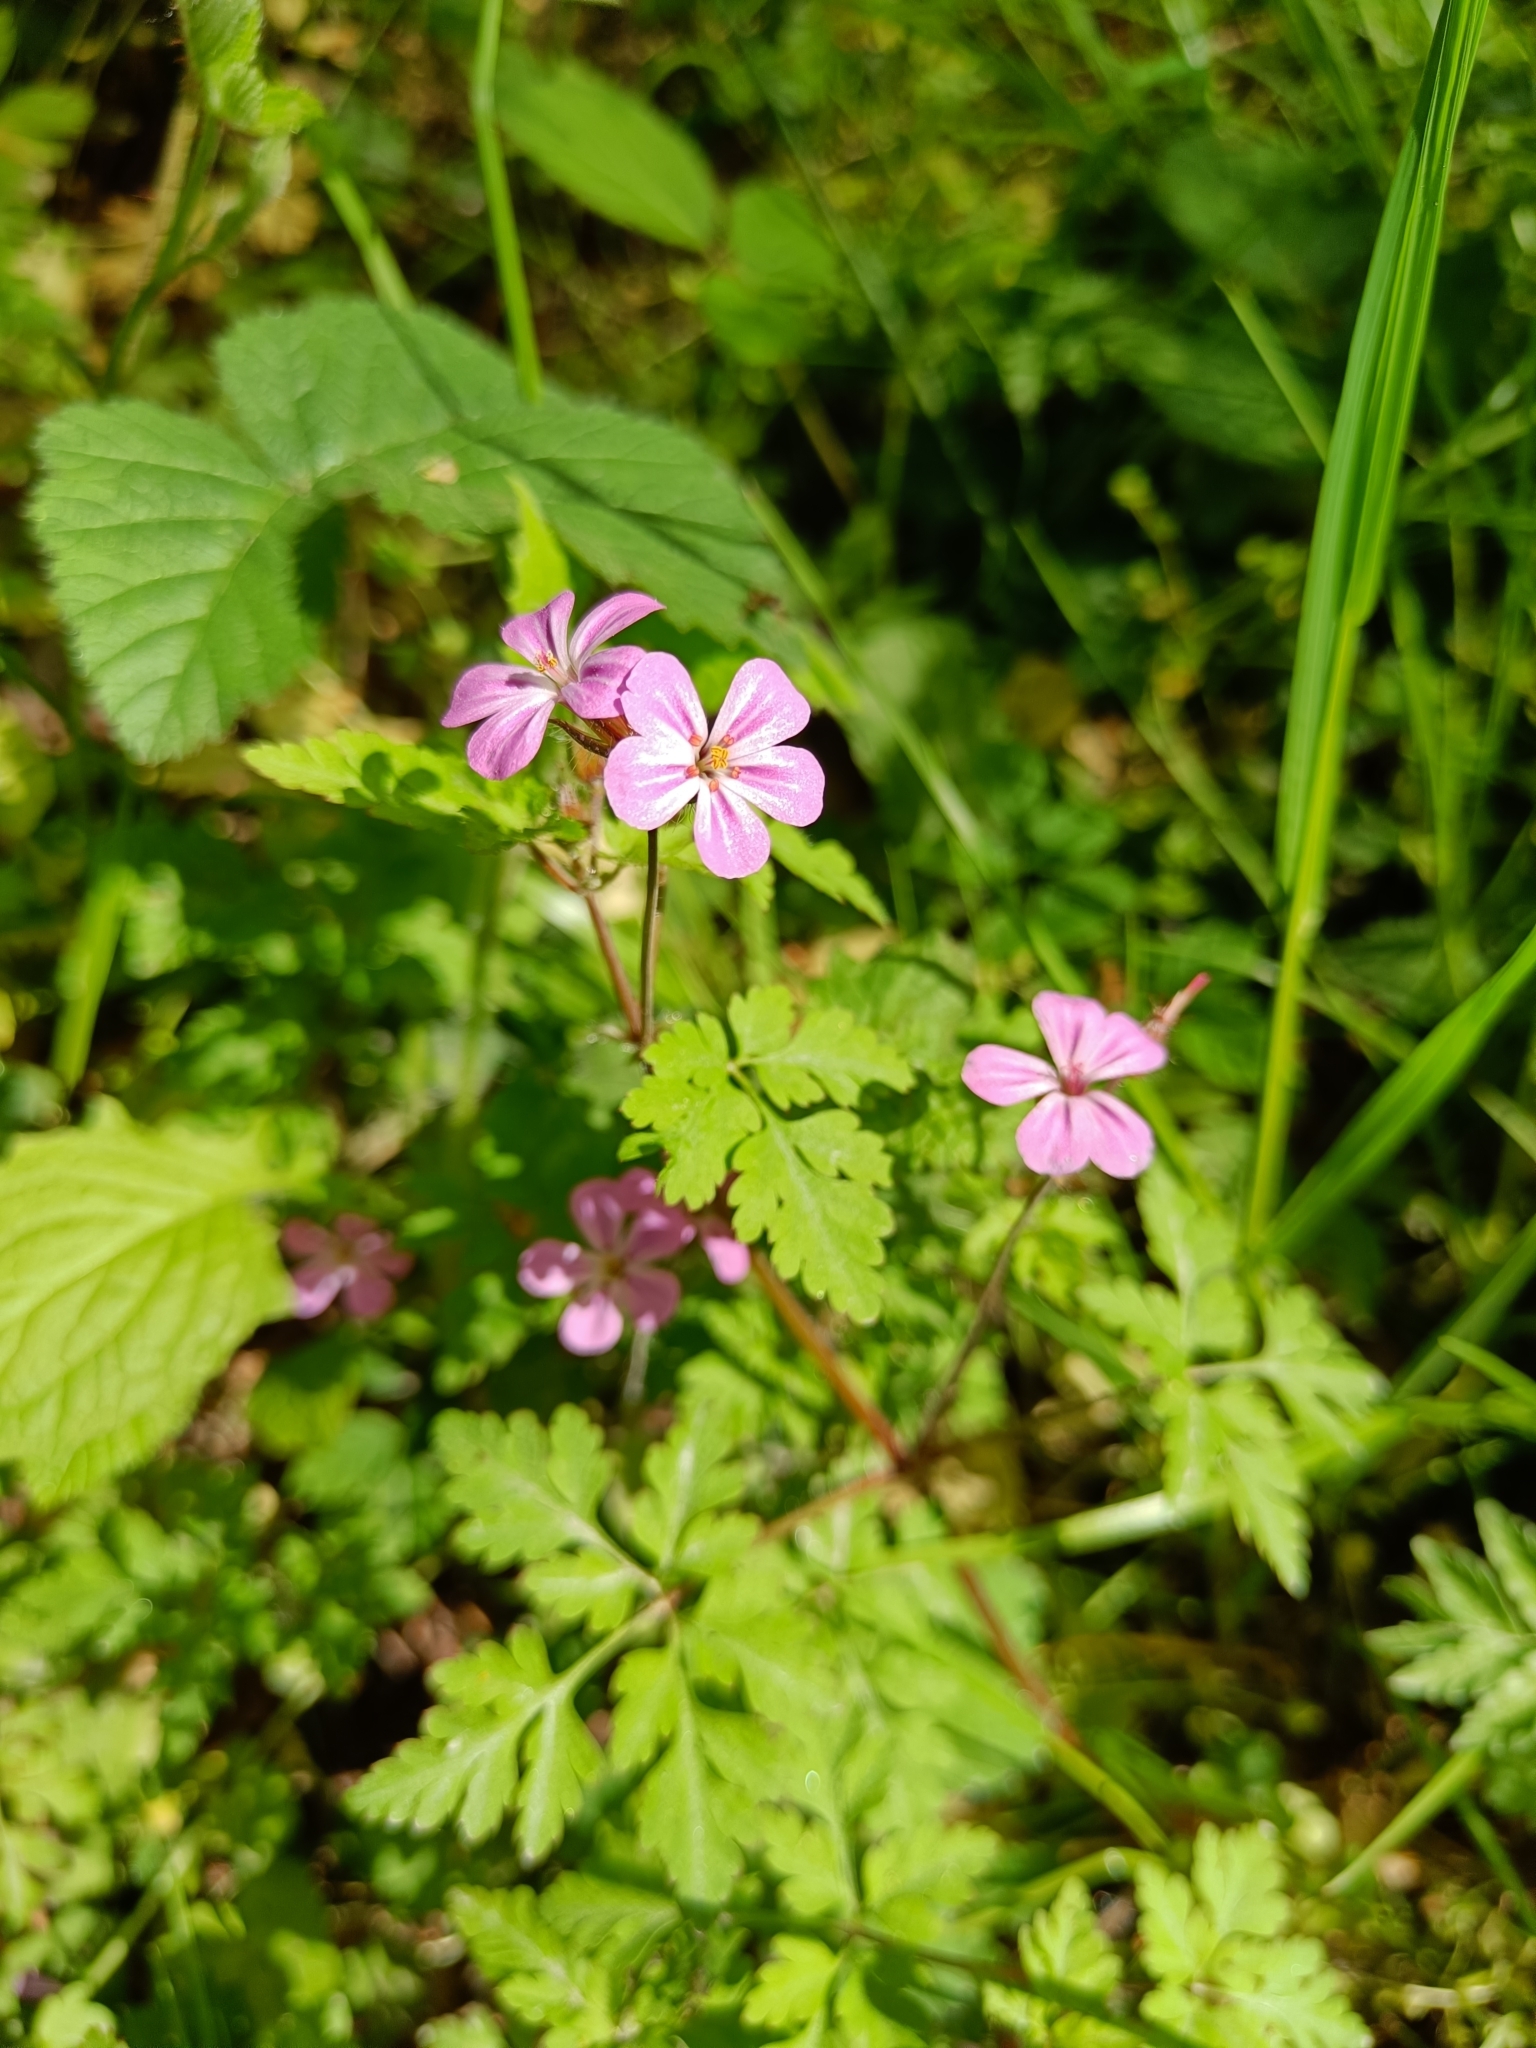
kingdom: Plantae
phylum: Tracheophyta
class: Magnoliopsida
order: Geraniales
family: Geraniaceae
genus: Geranium
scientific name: Geranium robertianum
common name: Herb-robert
